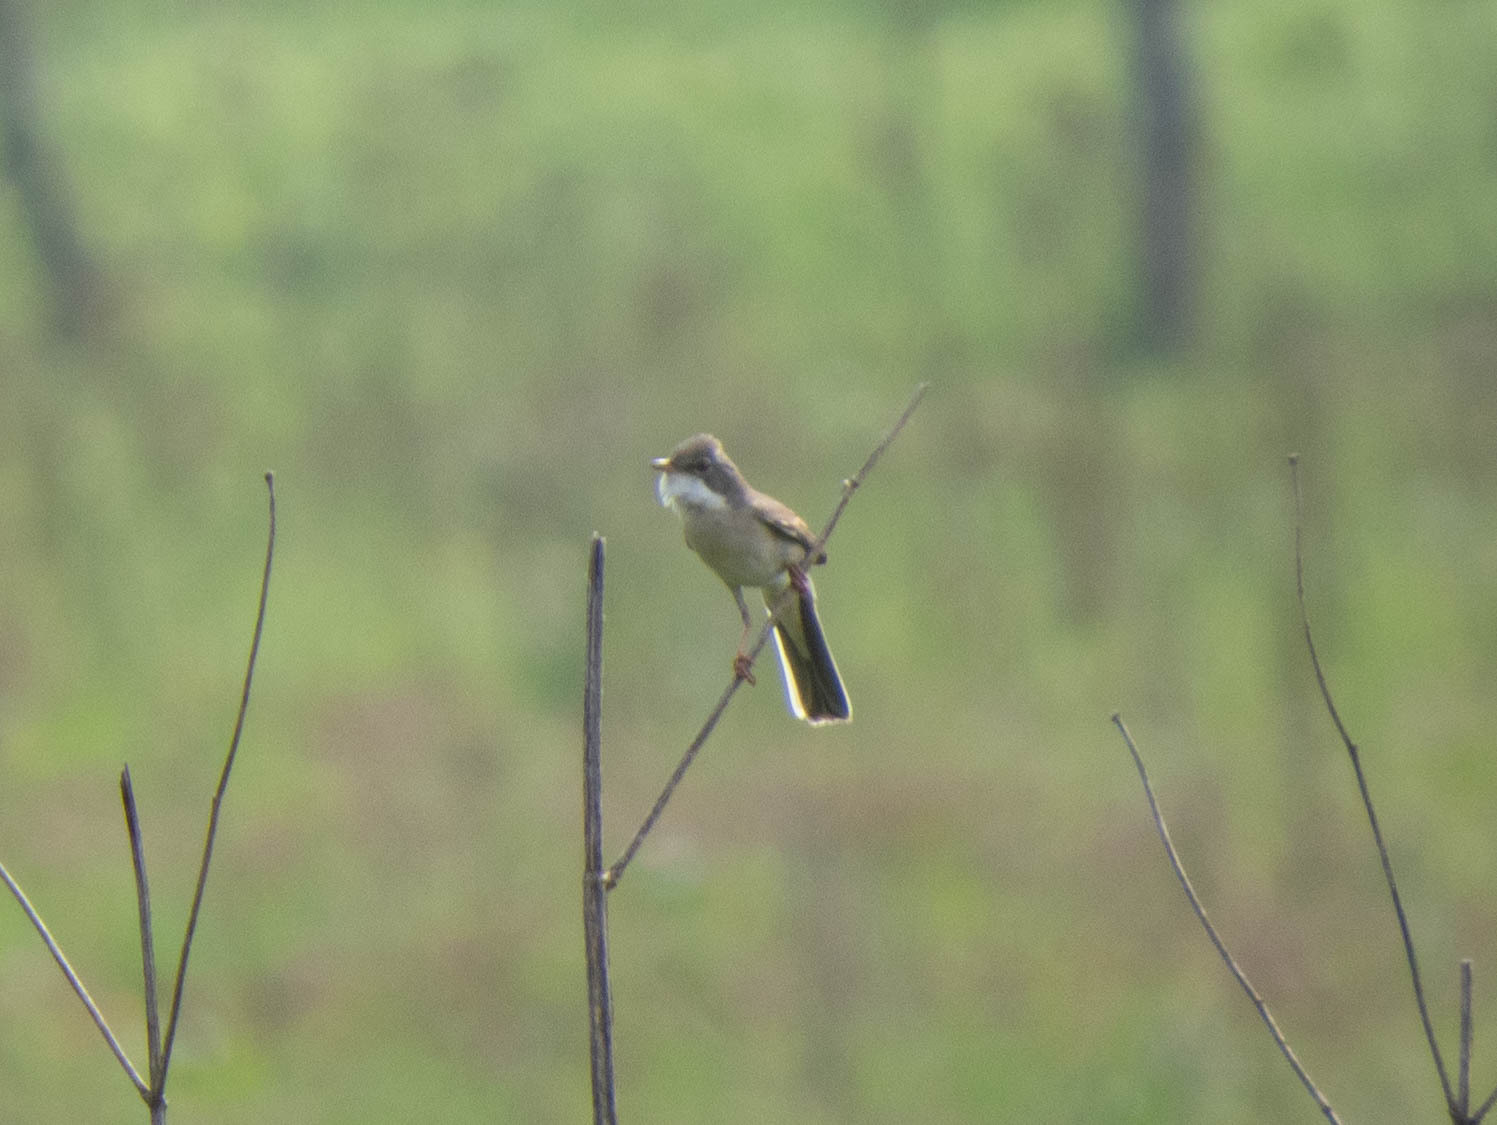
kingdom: Animalia
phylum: Chordata
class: Aves
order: Passeriformes
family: Sylviidae
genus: Sylvia
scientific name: Sylvia communis
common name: Common whitethroat
